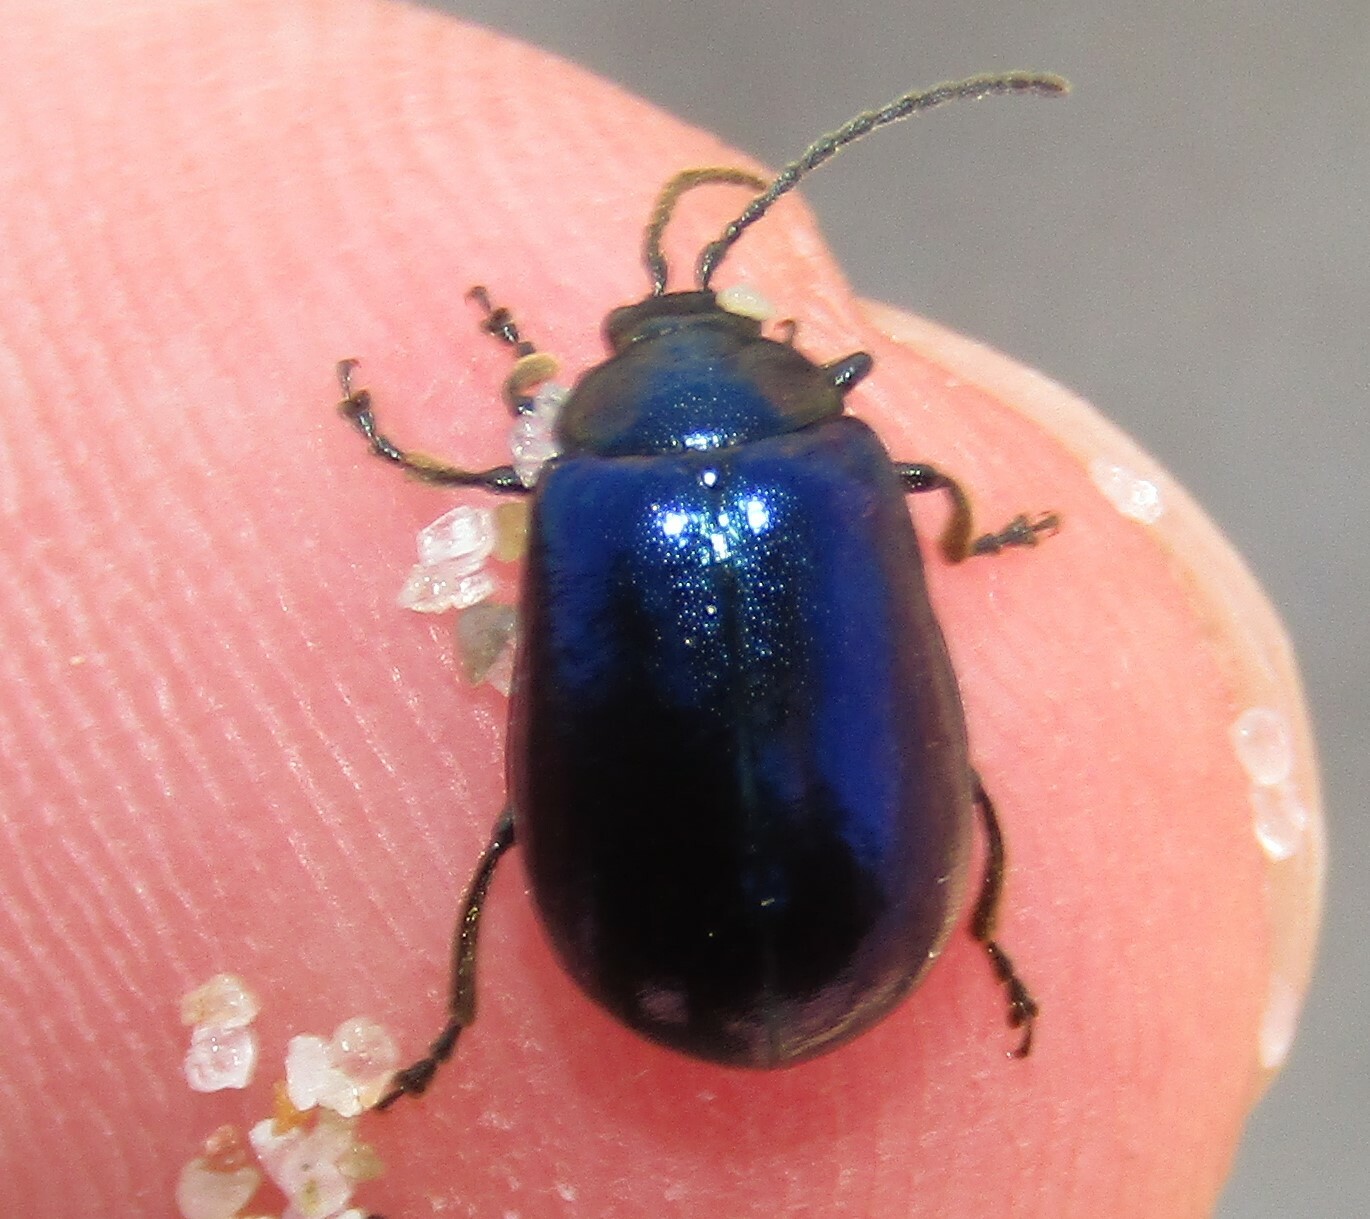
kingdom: Animalia
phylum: Arthropoda
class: Insecta
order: Coleoptera
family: Chrysomelidae
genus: Agelastica
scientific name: Agelastica alni
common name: Alder leaf beetle
